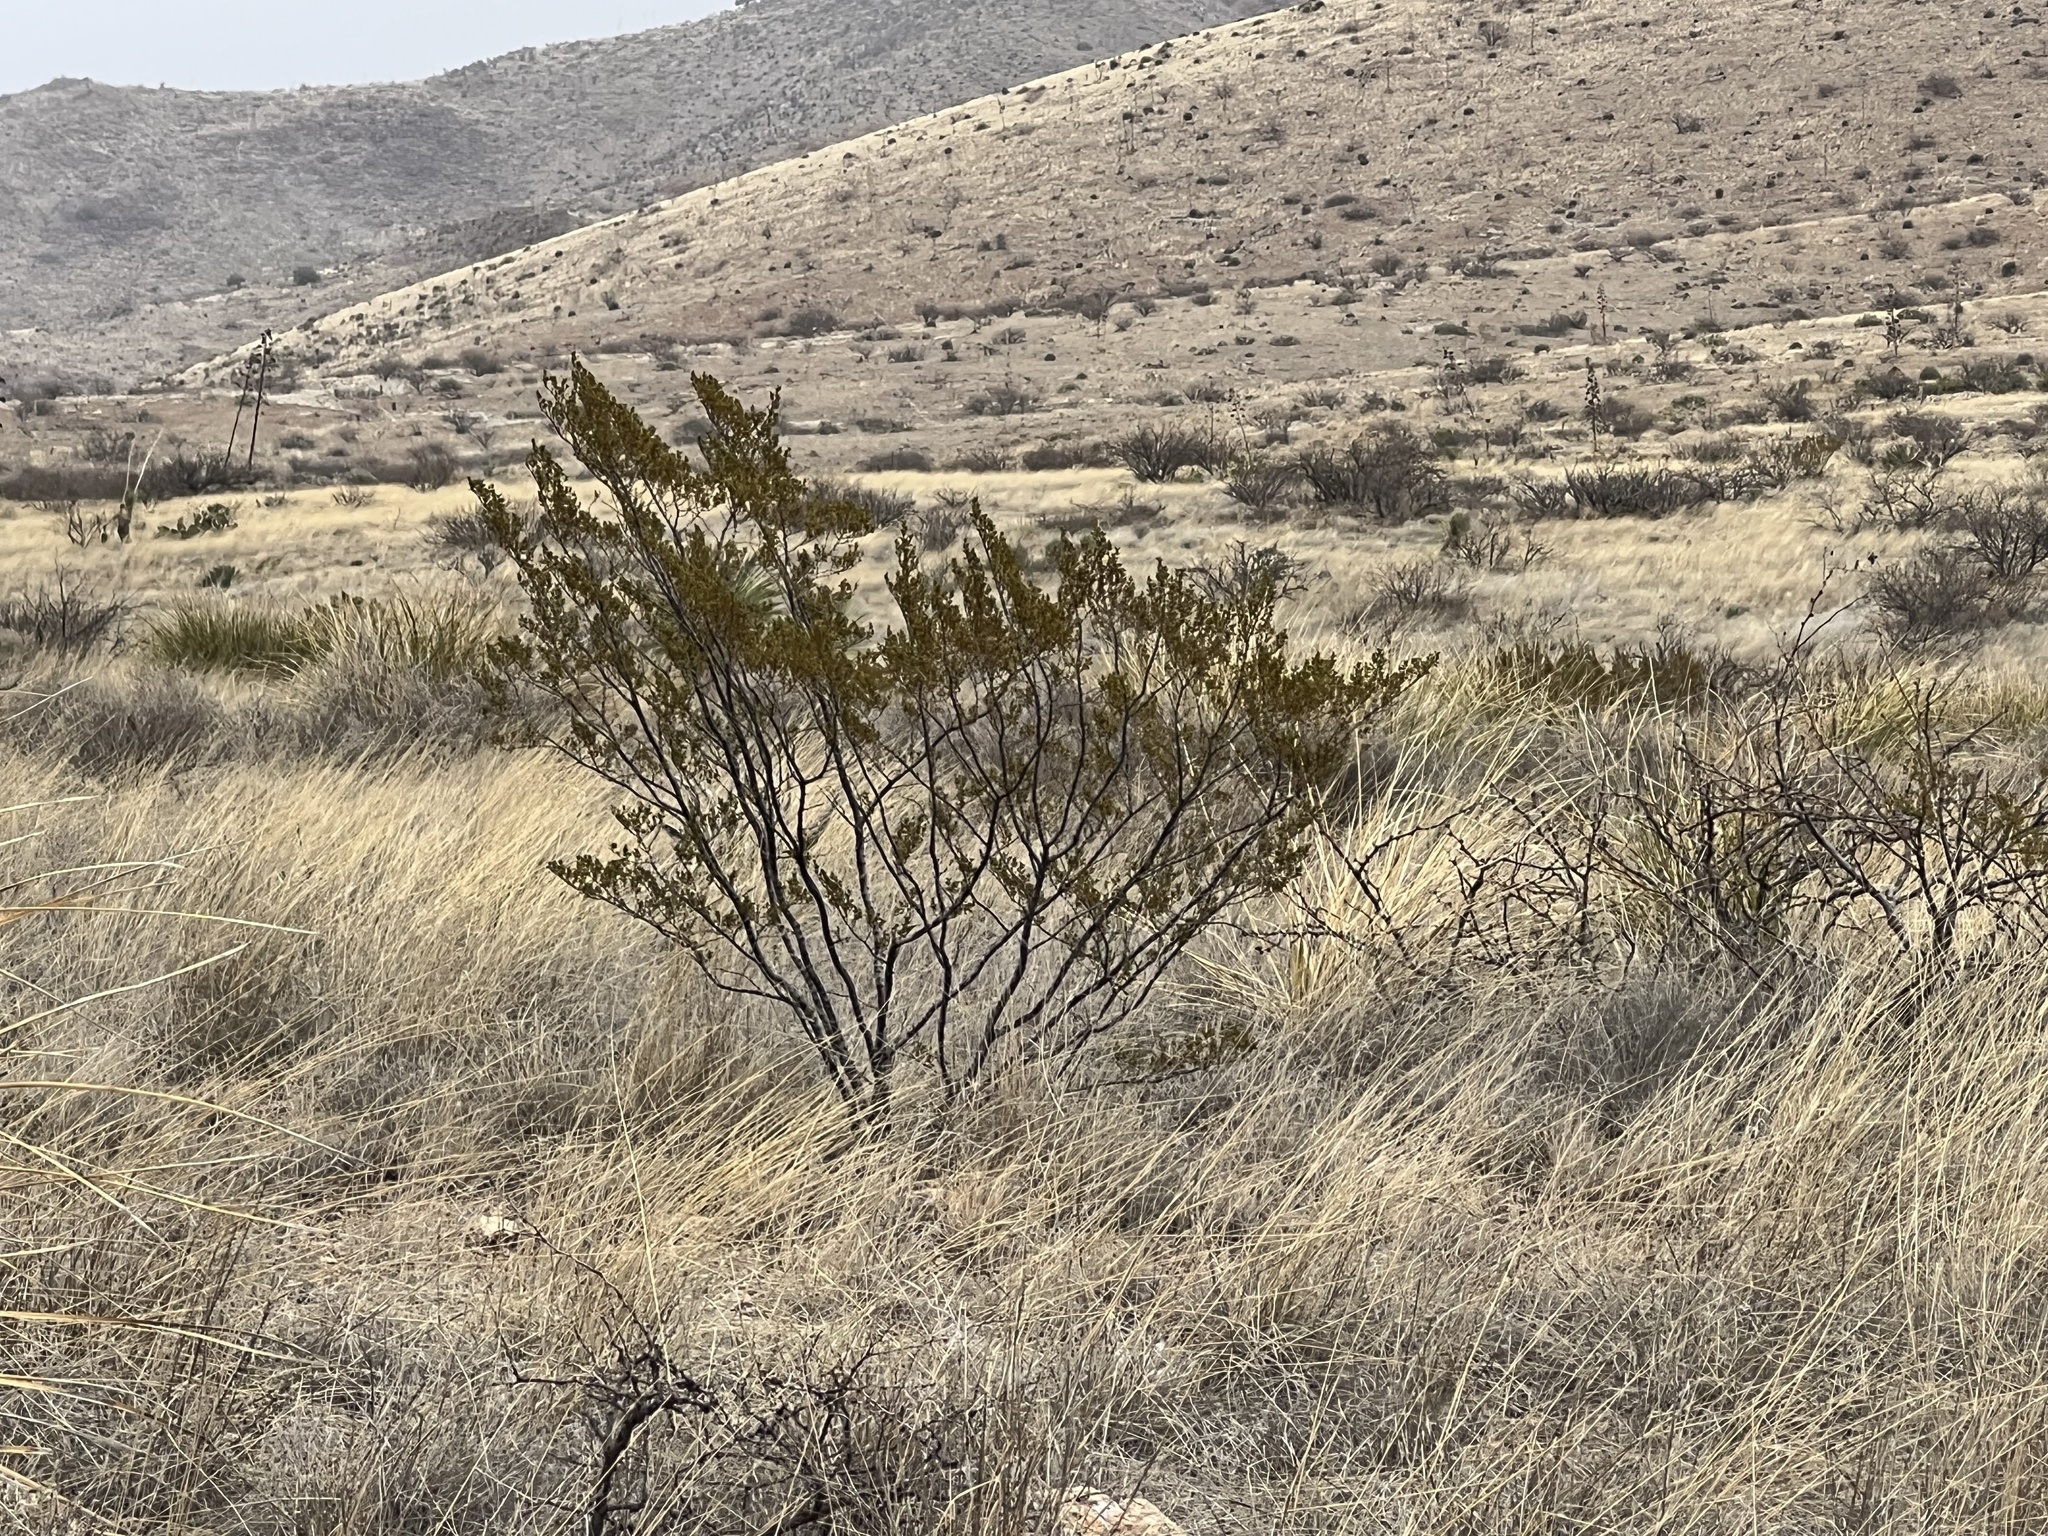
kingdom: Plantae
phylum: Tracheophyta
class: Magnoliopsida
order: Zygophyllales
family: Zygophyllaceae
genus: Larrea
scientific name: Larrea tridentata
